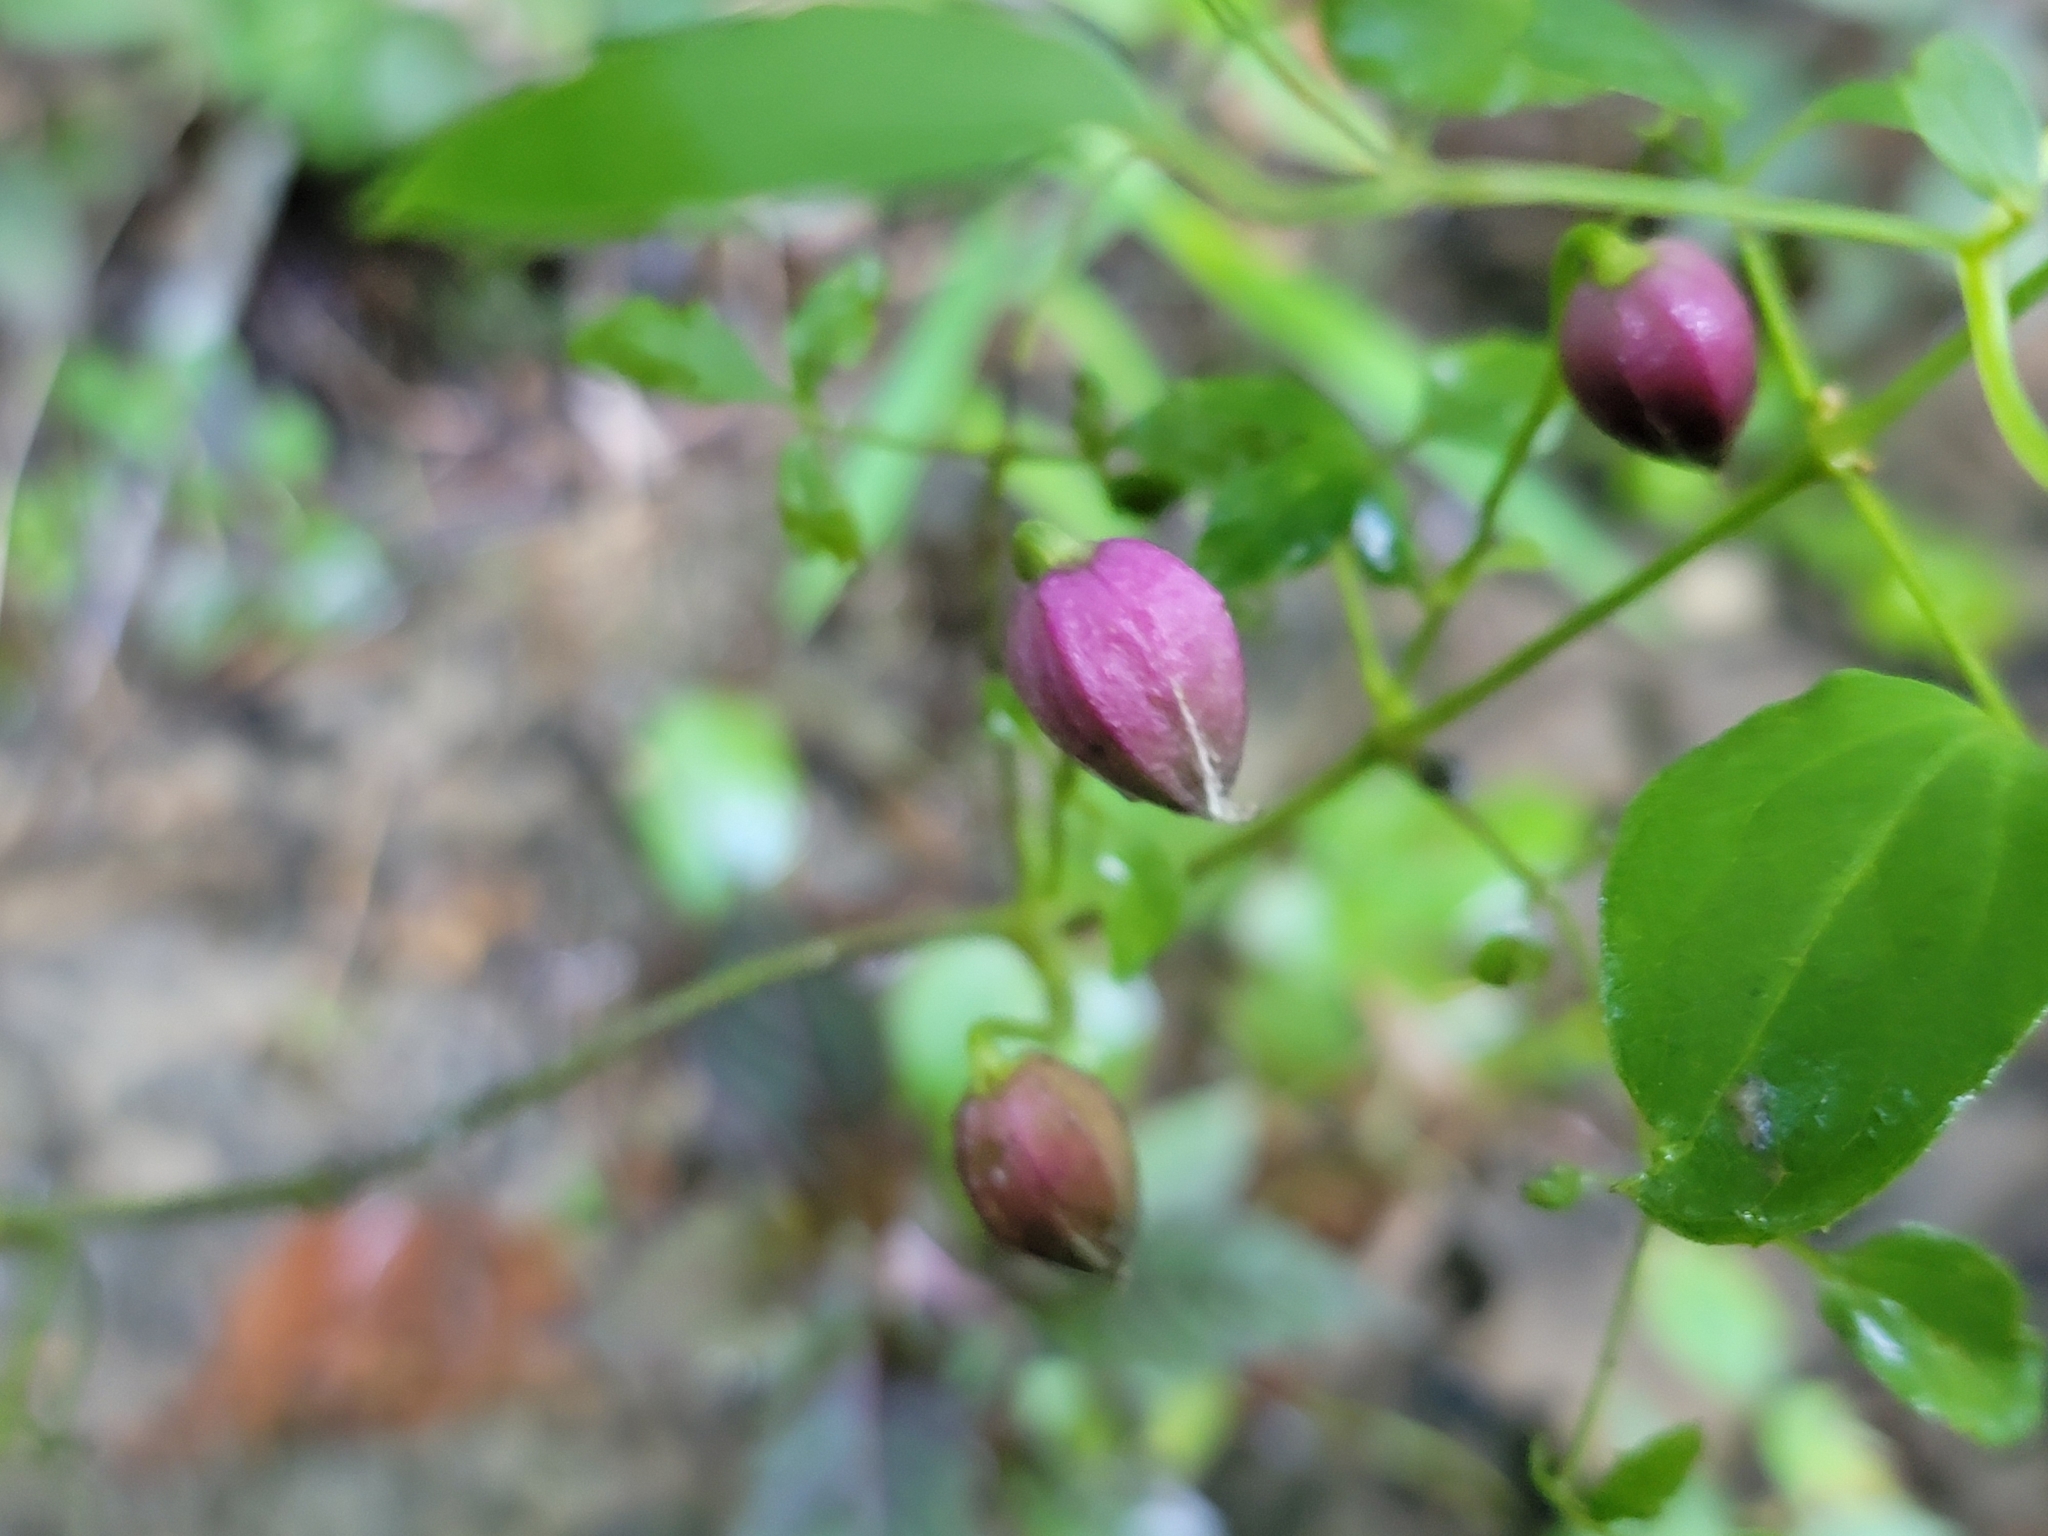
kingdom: Plantae
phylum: Tracheophyta
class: Magnoliopsida
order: Ranunculales
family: Ranunculaceae
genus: Clematis
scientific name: Clematis viorna
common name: Leather-flower
